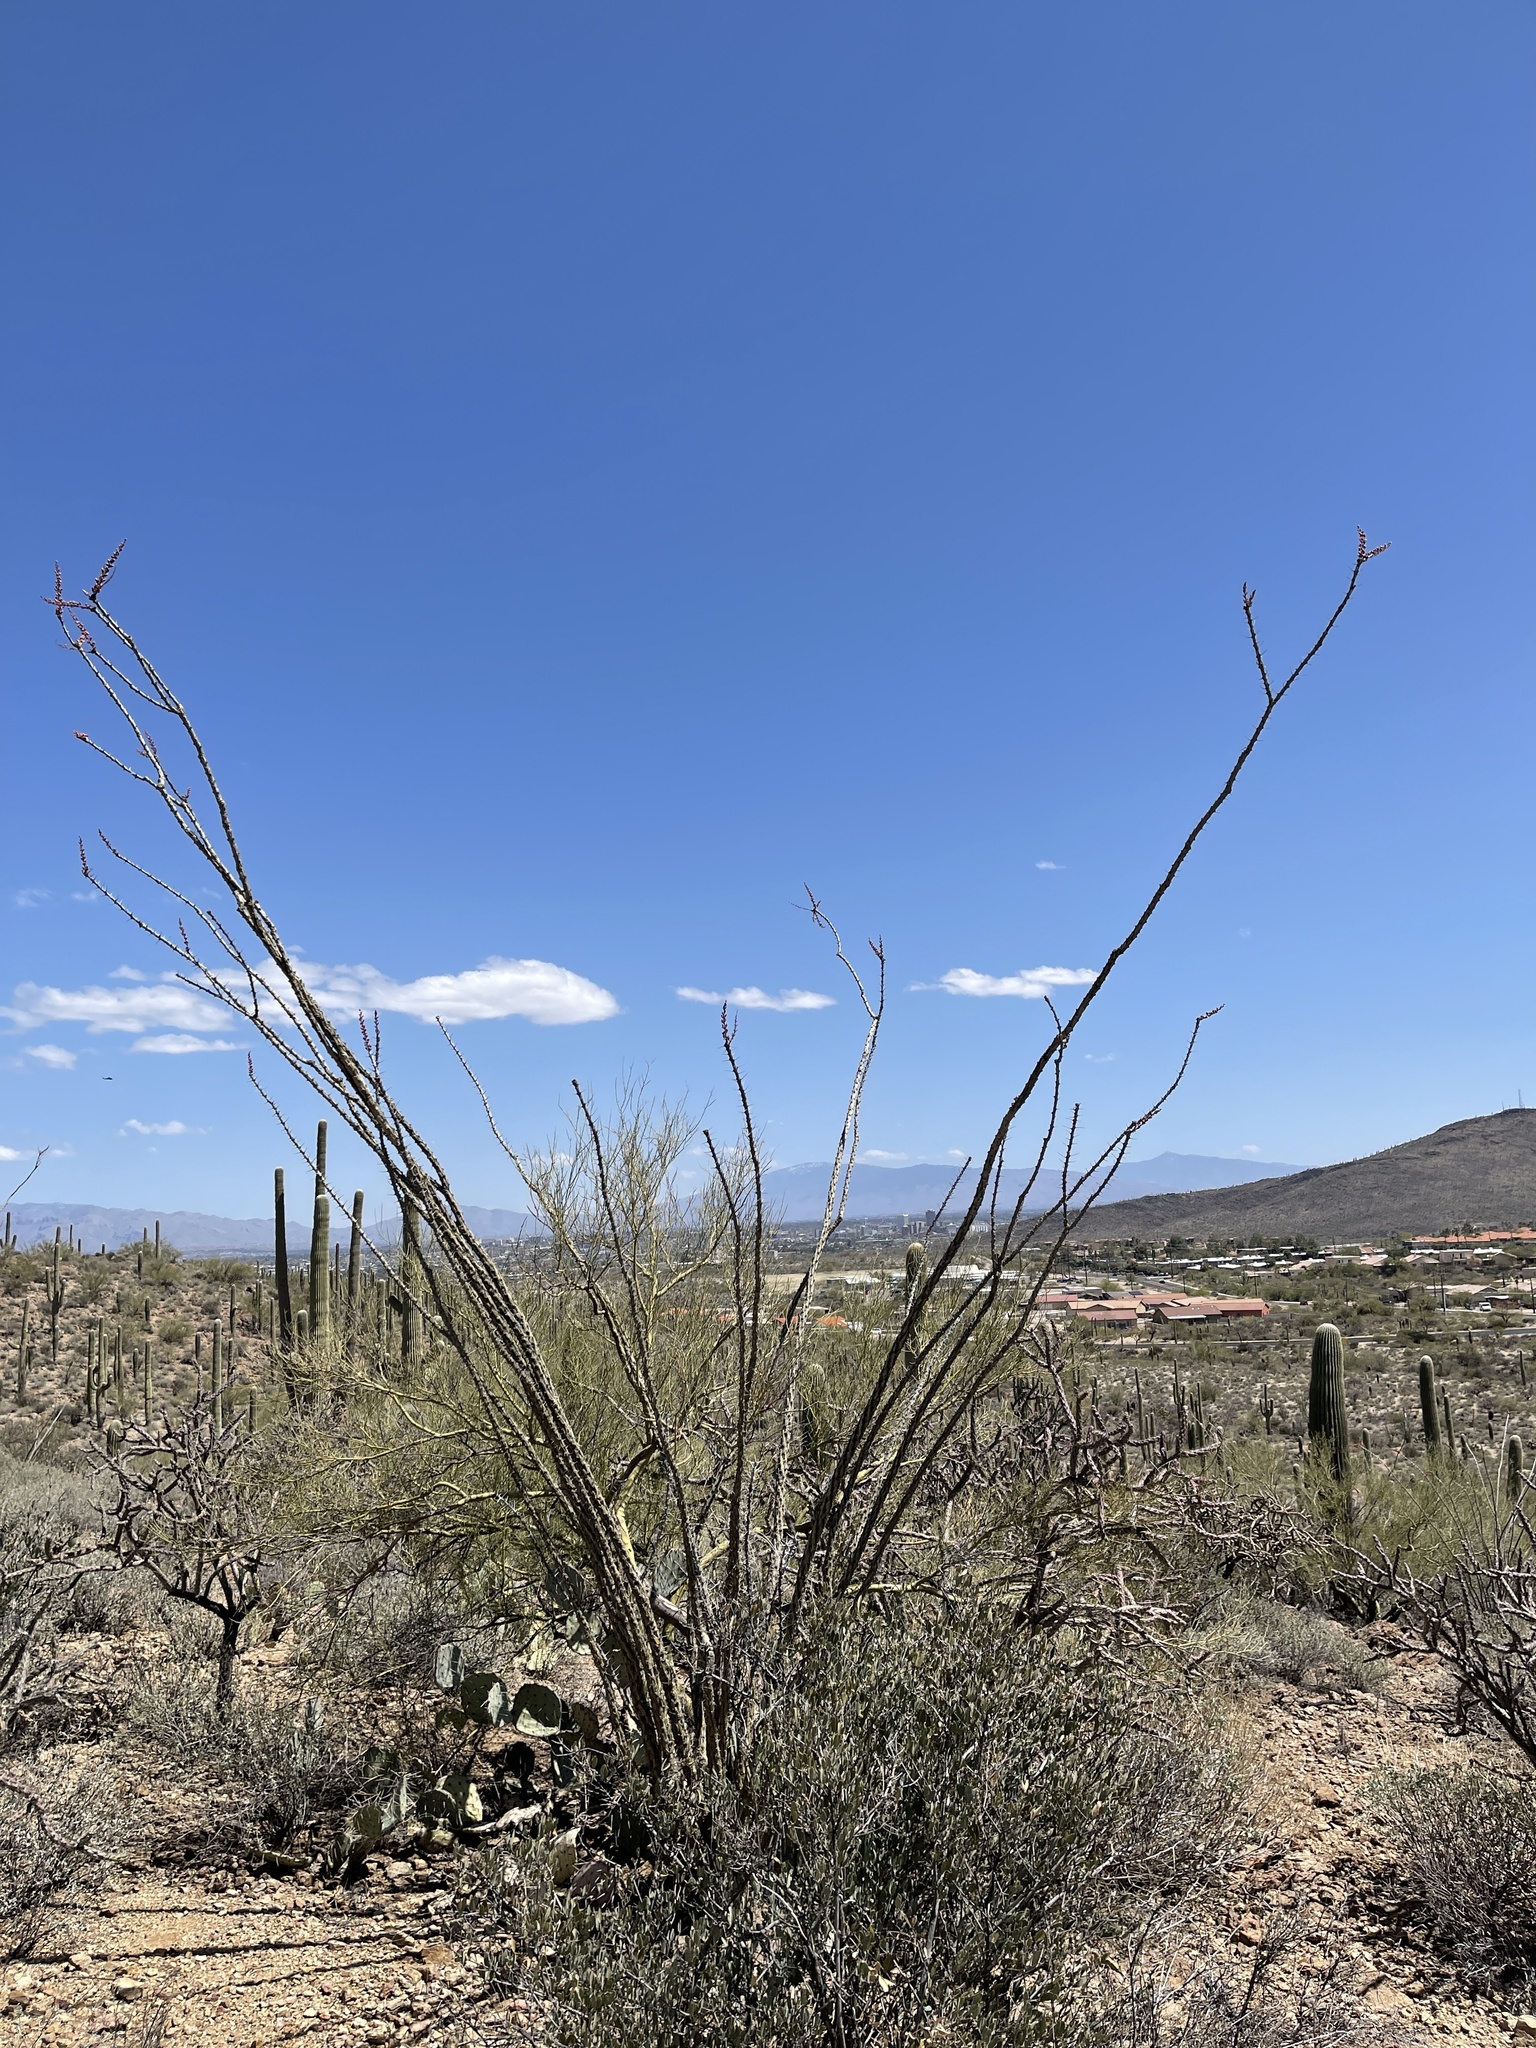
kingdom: Plantae
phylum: Tracheophyta
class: Magnoliopsida
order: Ericales
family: Fouquieriaceae
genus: Fouquieria
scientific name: Fouquieria splendens
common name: Vine-cactus
